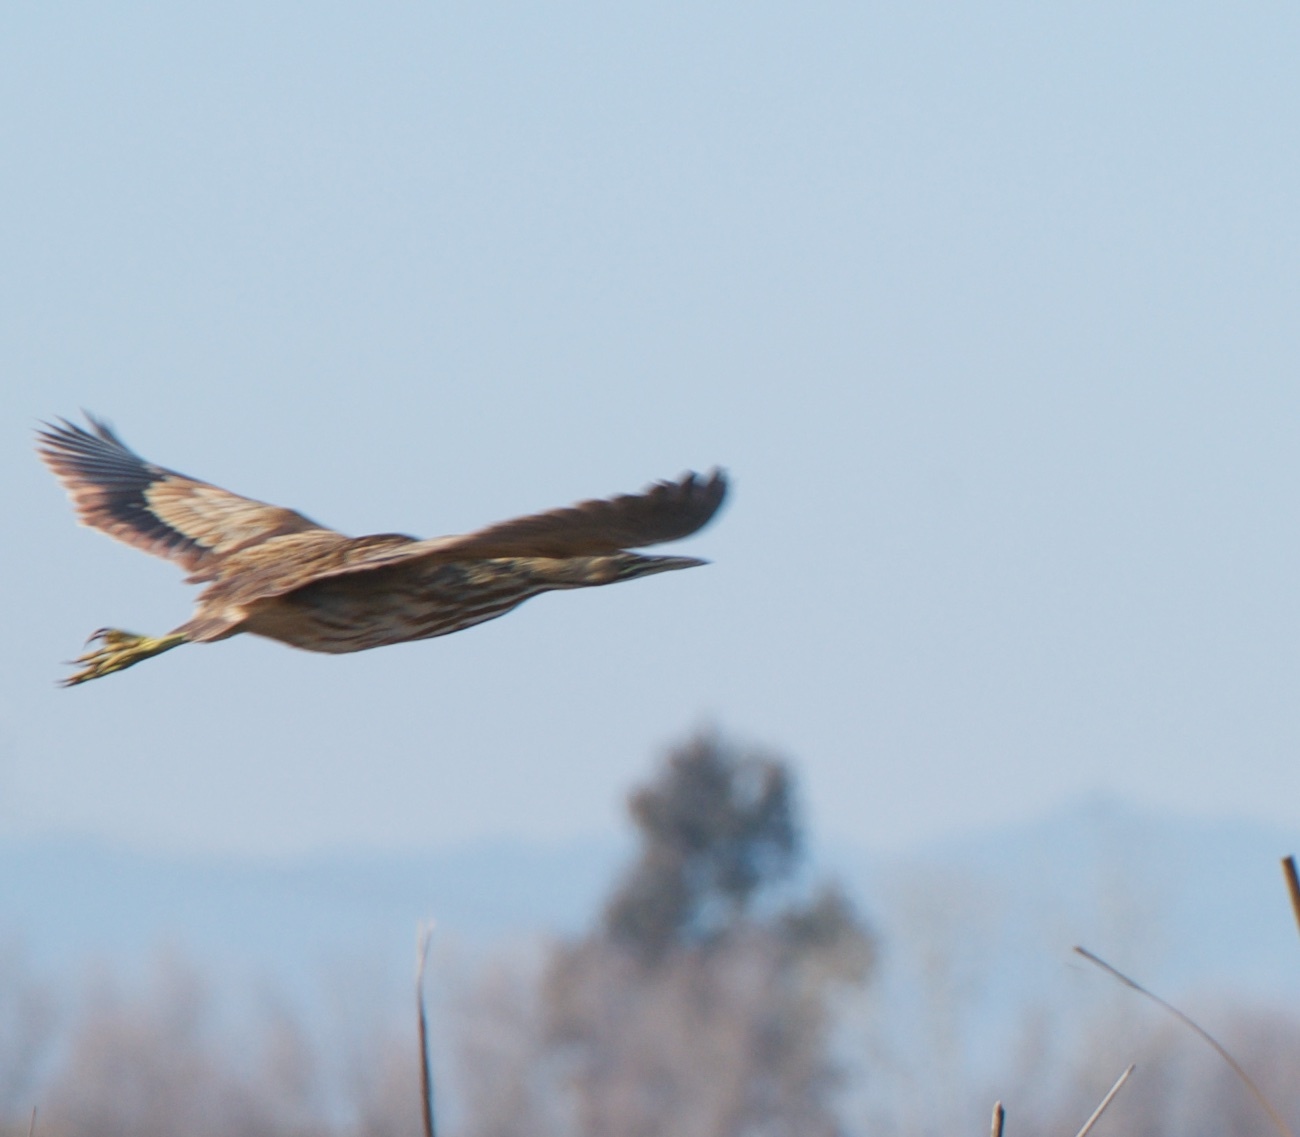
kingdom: Animalia
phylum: Chordata
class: Aves
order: Pelecaniformes
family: Ardeidae
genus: Botaurus
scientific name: Botaurus lentiginosus
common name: American bittern
